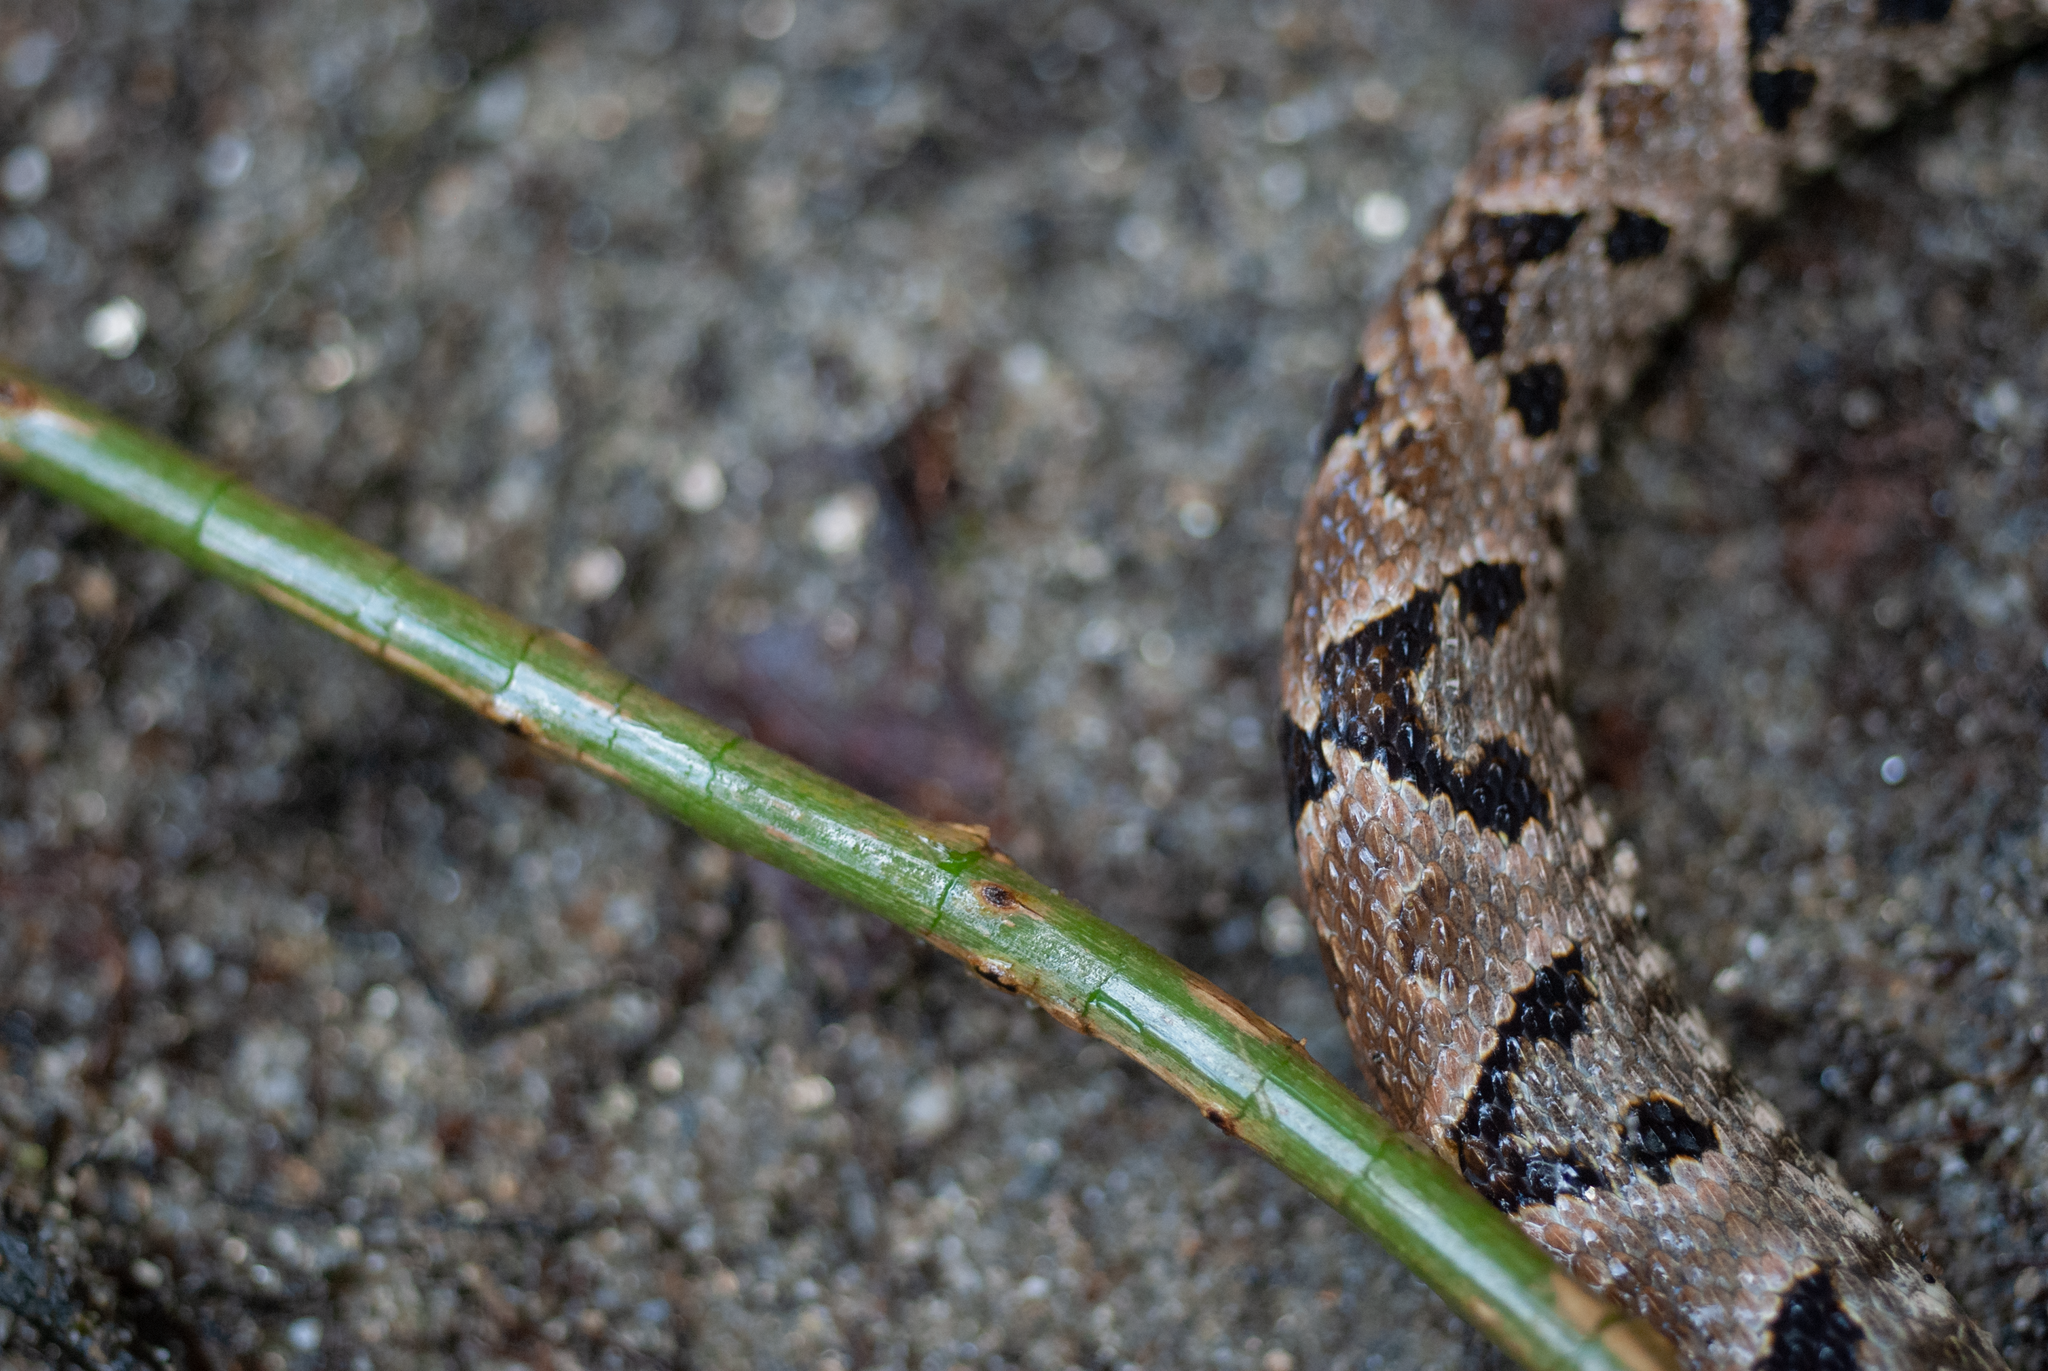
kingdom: Animalia
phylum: Chordata
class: Squamata
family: Viperidae
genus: Bothrops
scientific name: Bothrops asper
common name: Terciopelo
